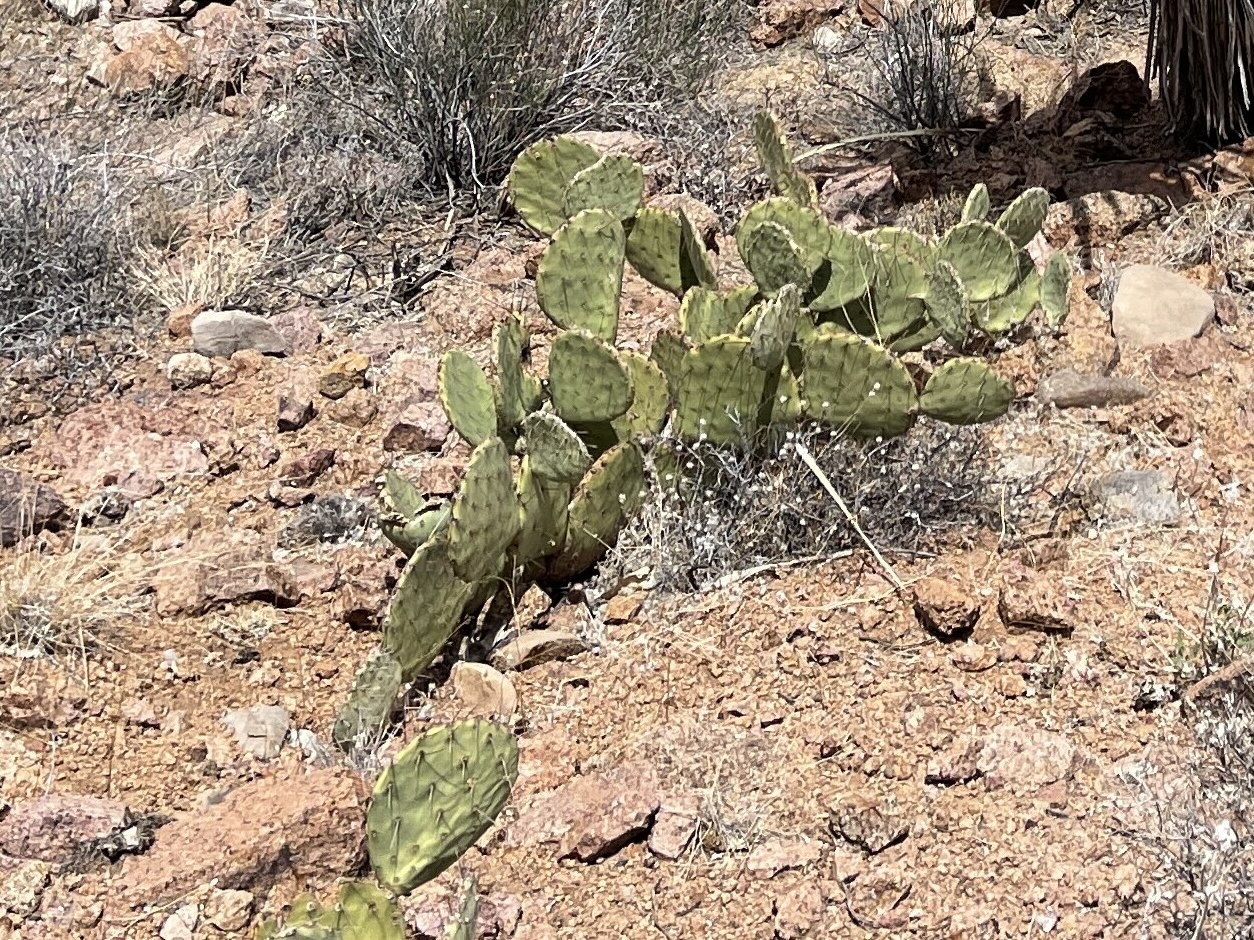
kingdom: Plantae
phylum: Tracheophyta
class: Magnoliopsida
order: Caryophyllales
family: Cactaceae
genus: Opuntia
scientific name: Opuntia engelmannii
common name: Cactus-apple
